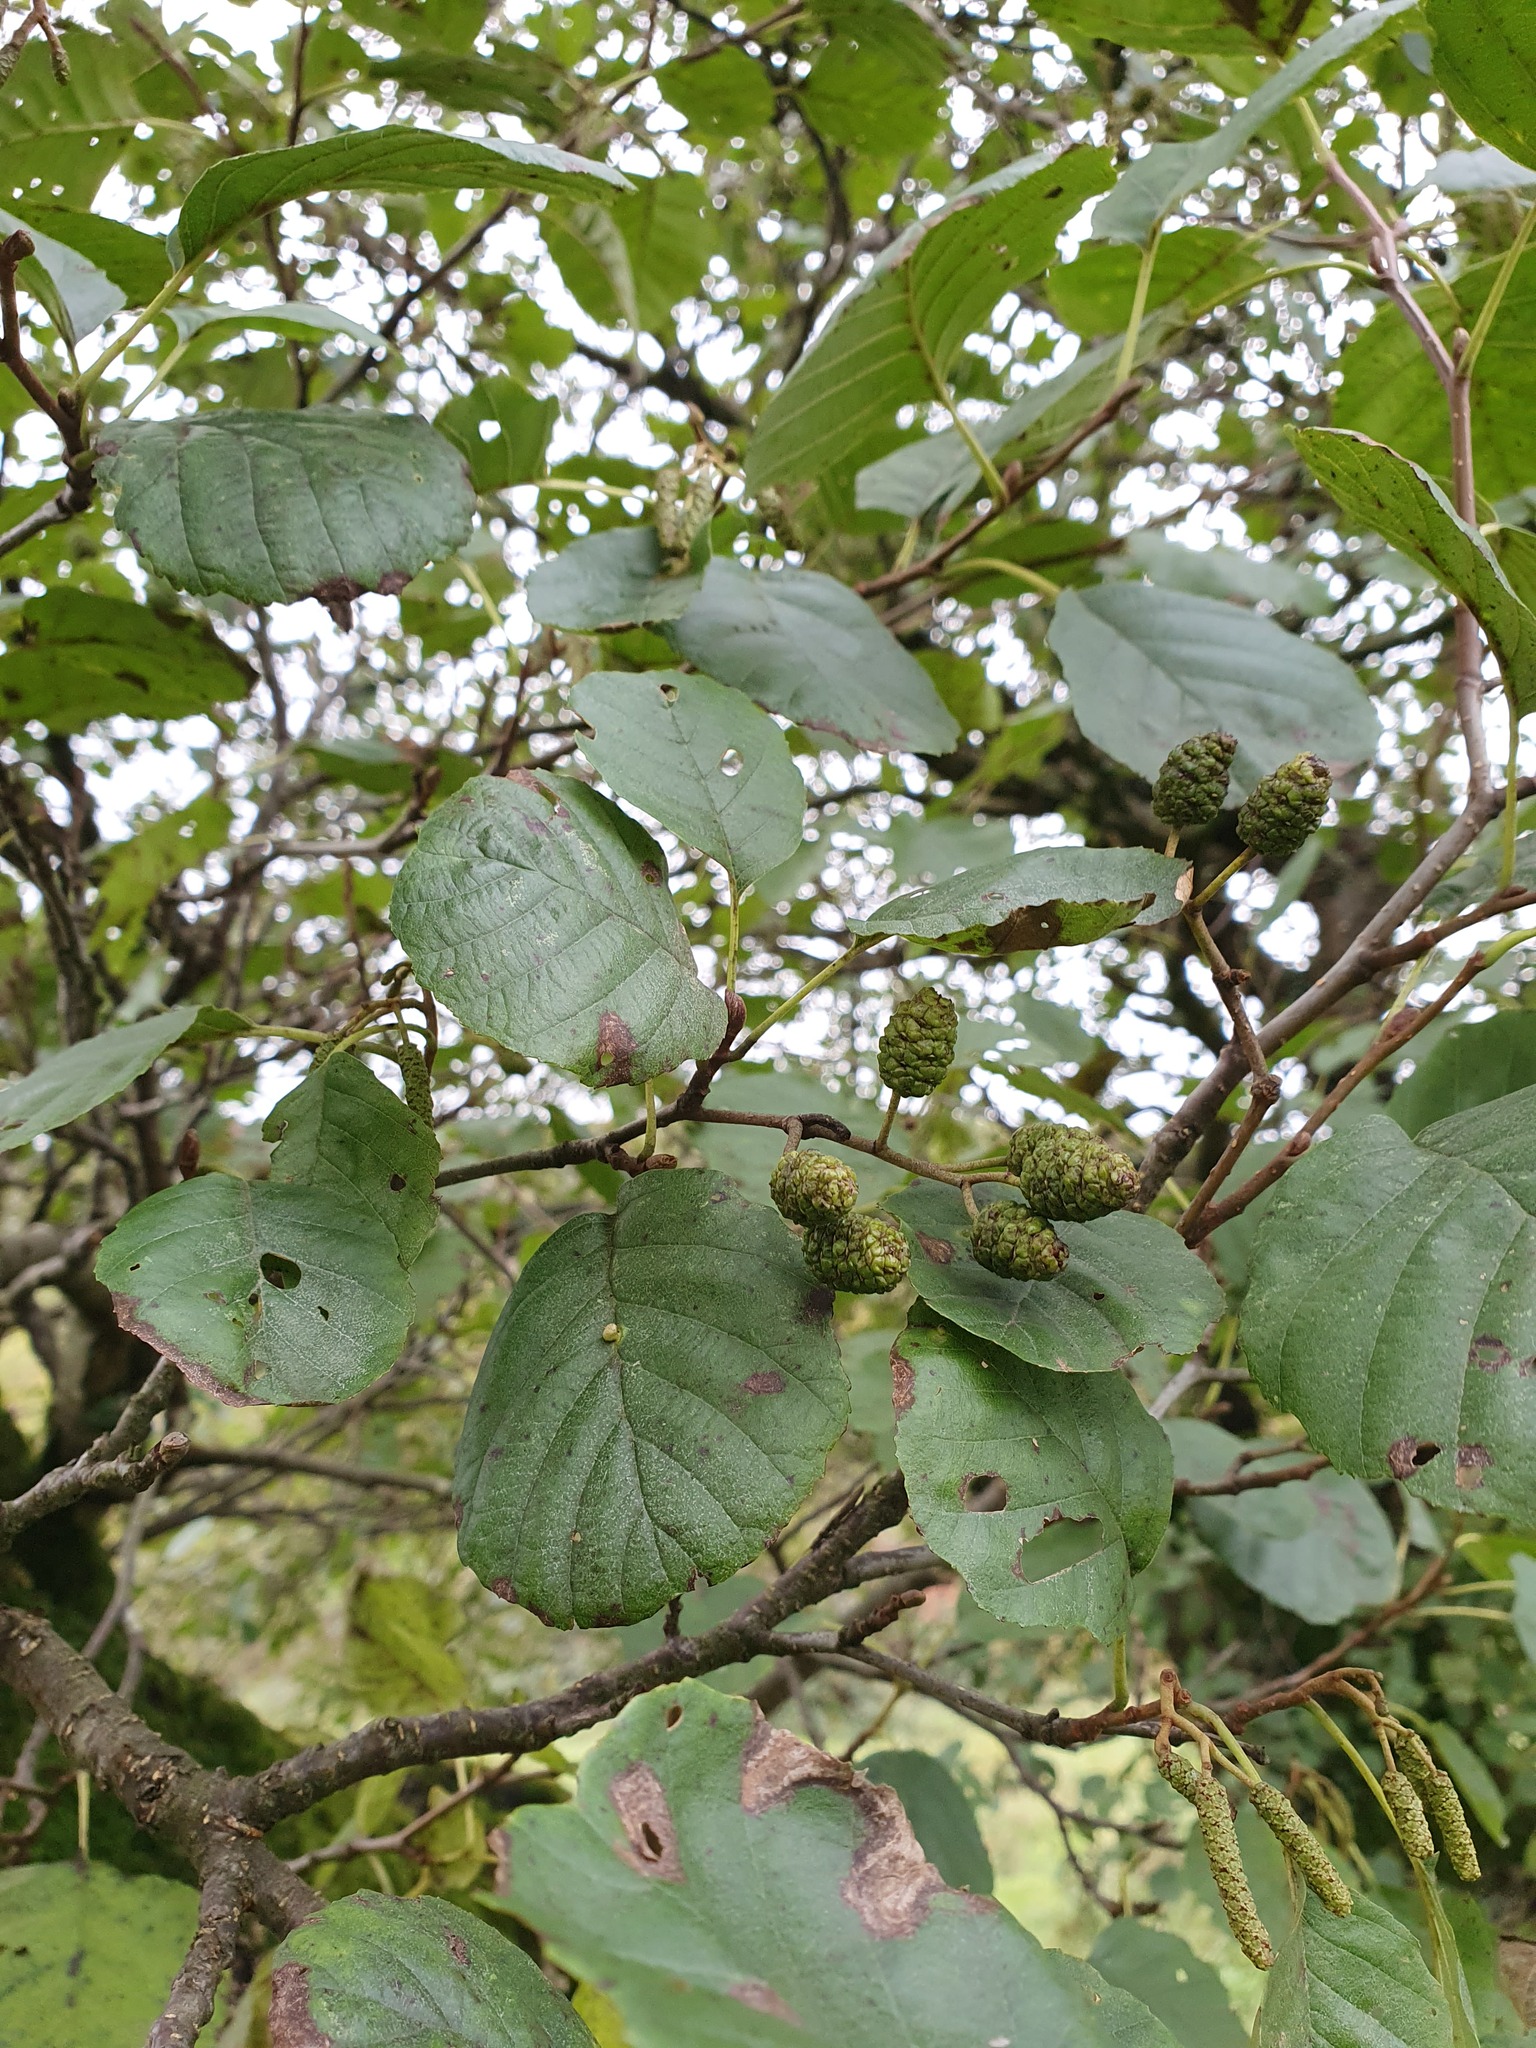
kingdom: Plantae
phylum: Tracheophyta
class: Magnoliopsida
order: Fagales
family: Betulaceae
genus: Alnus
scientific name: Alnus glutinosa
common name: Black alder
